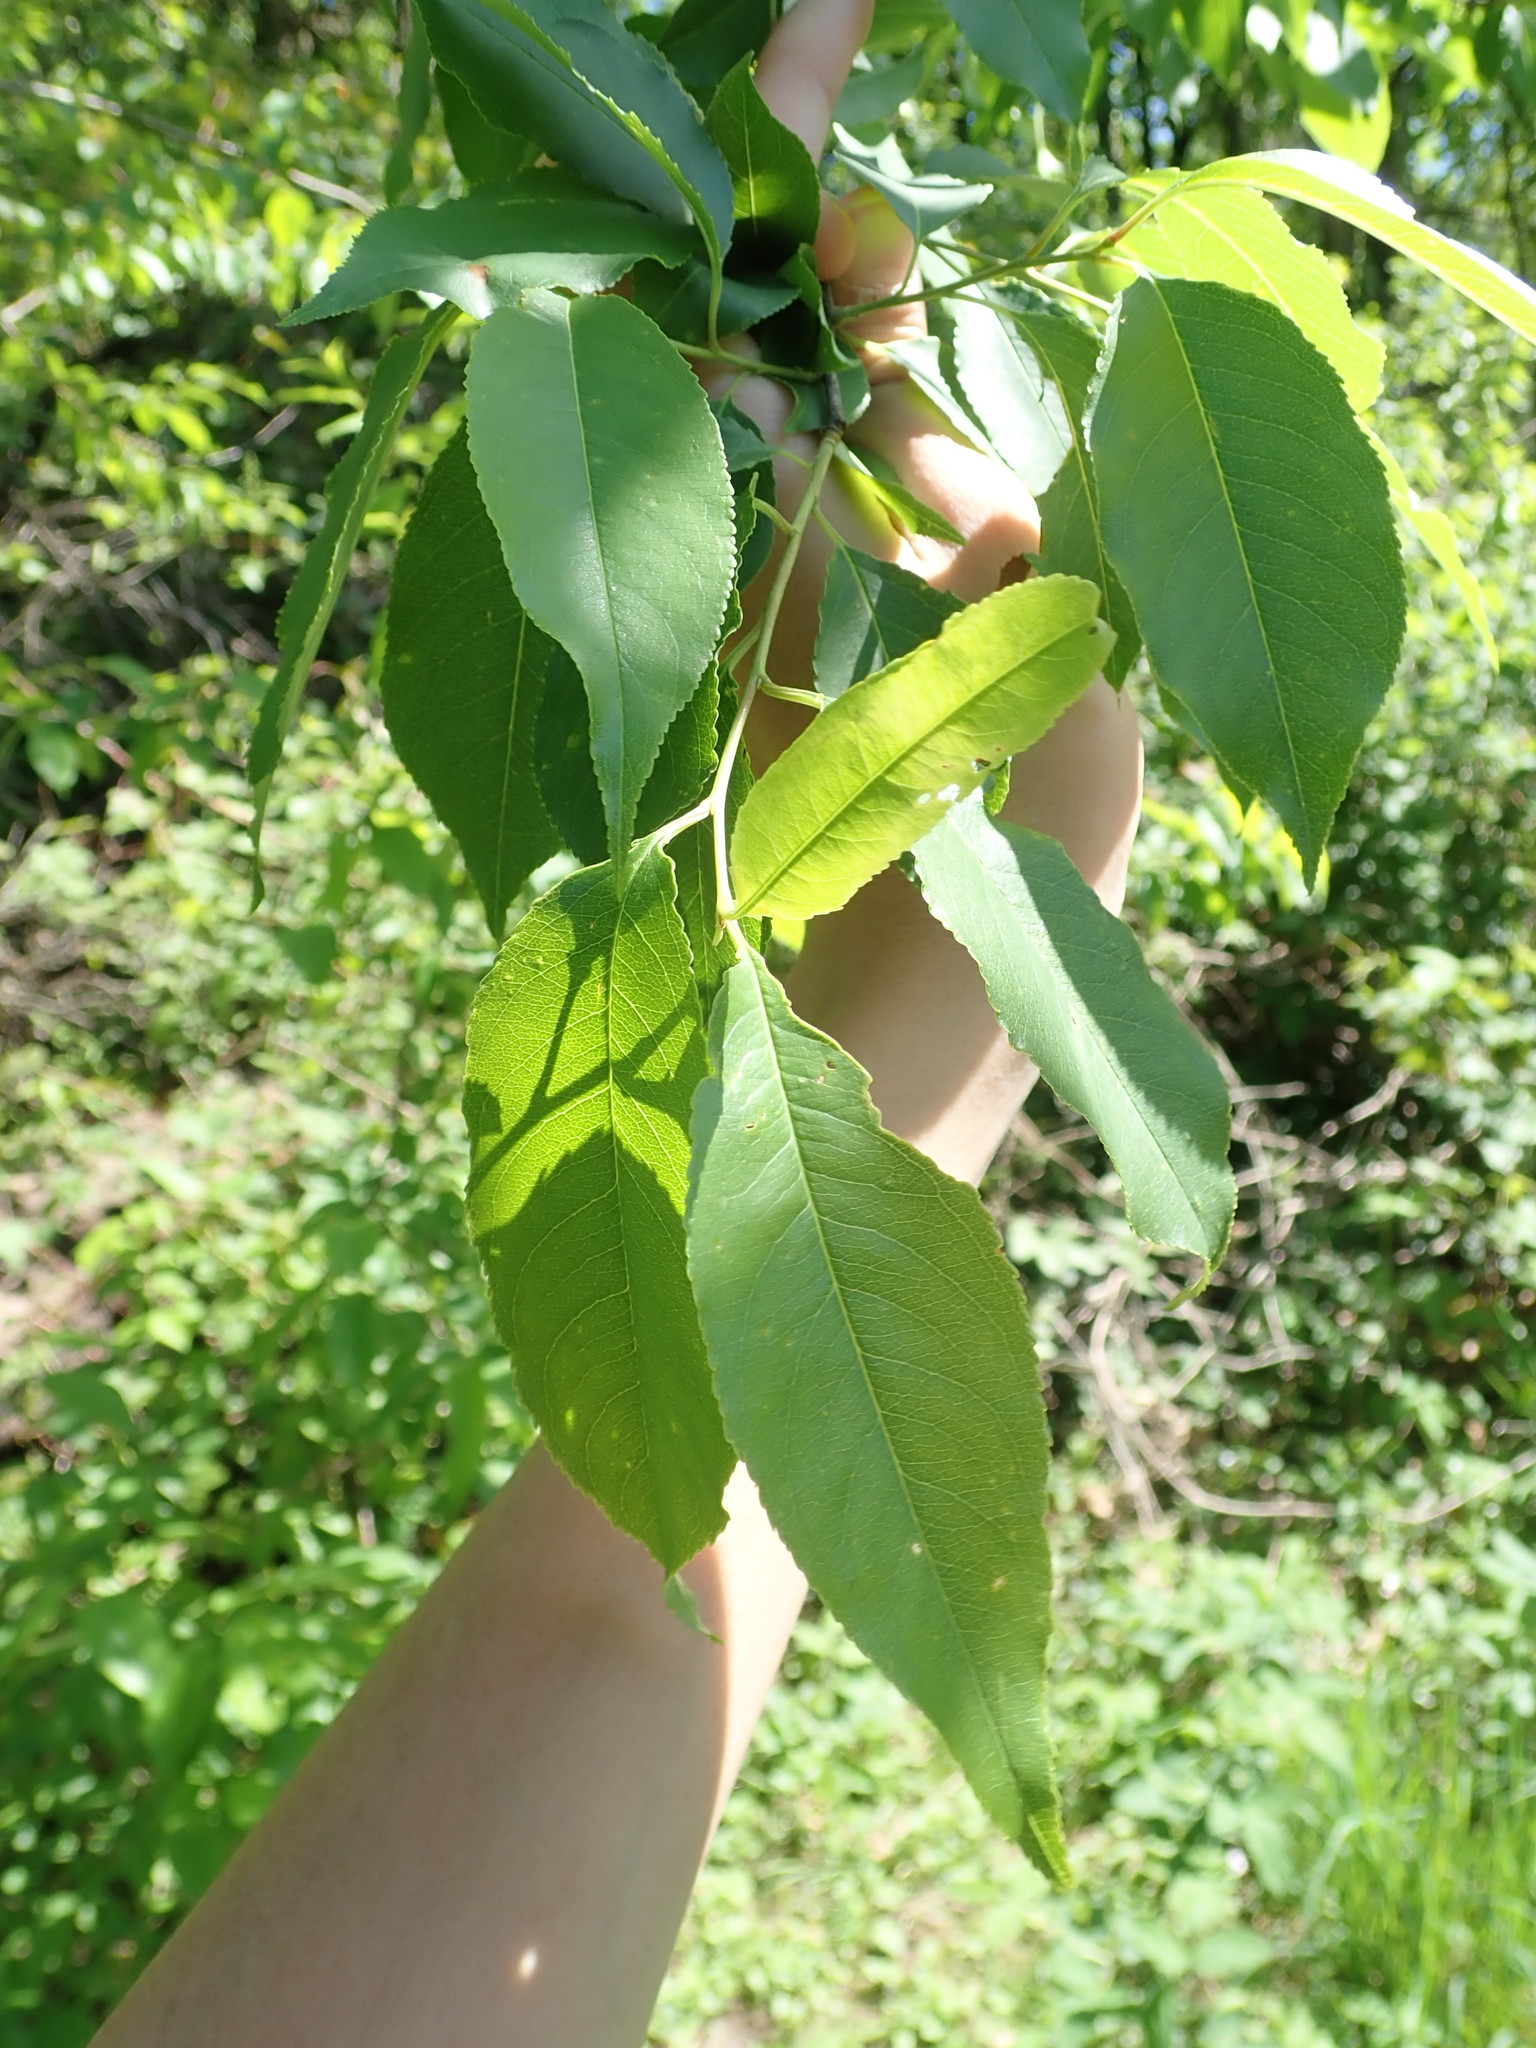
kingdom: Plantae
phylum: Tracheophyta
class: Magnoliopsida
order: Rosales
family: Rosaceae
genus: Prunus
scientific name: Prunus serotina
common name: Black cherry
